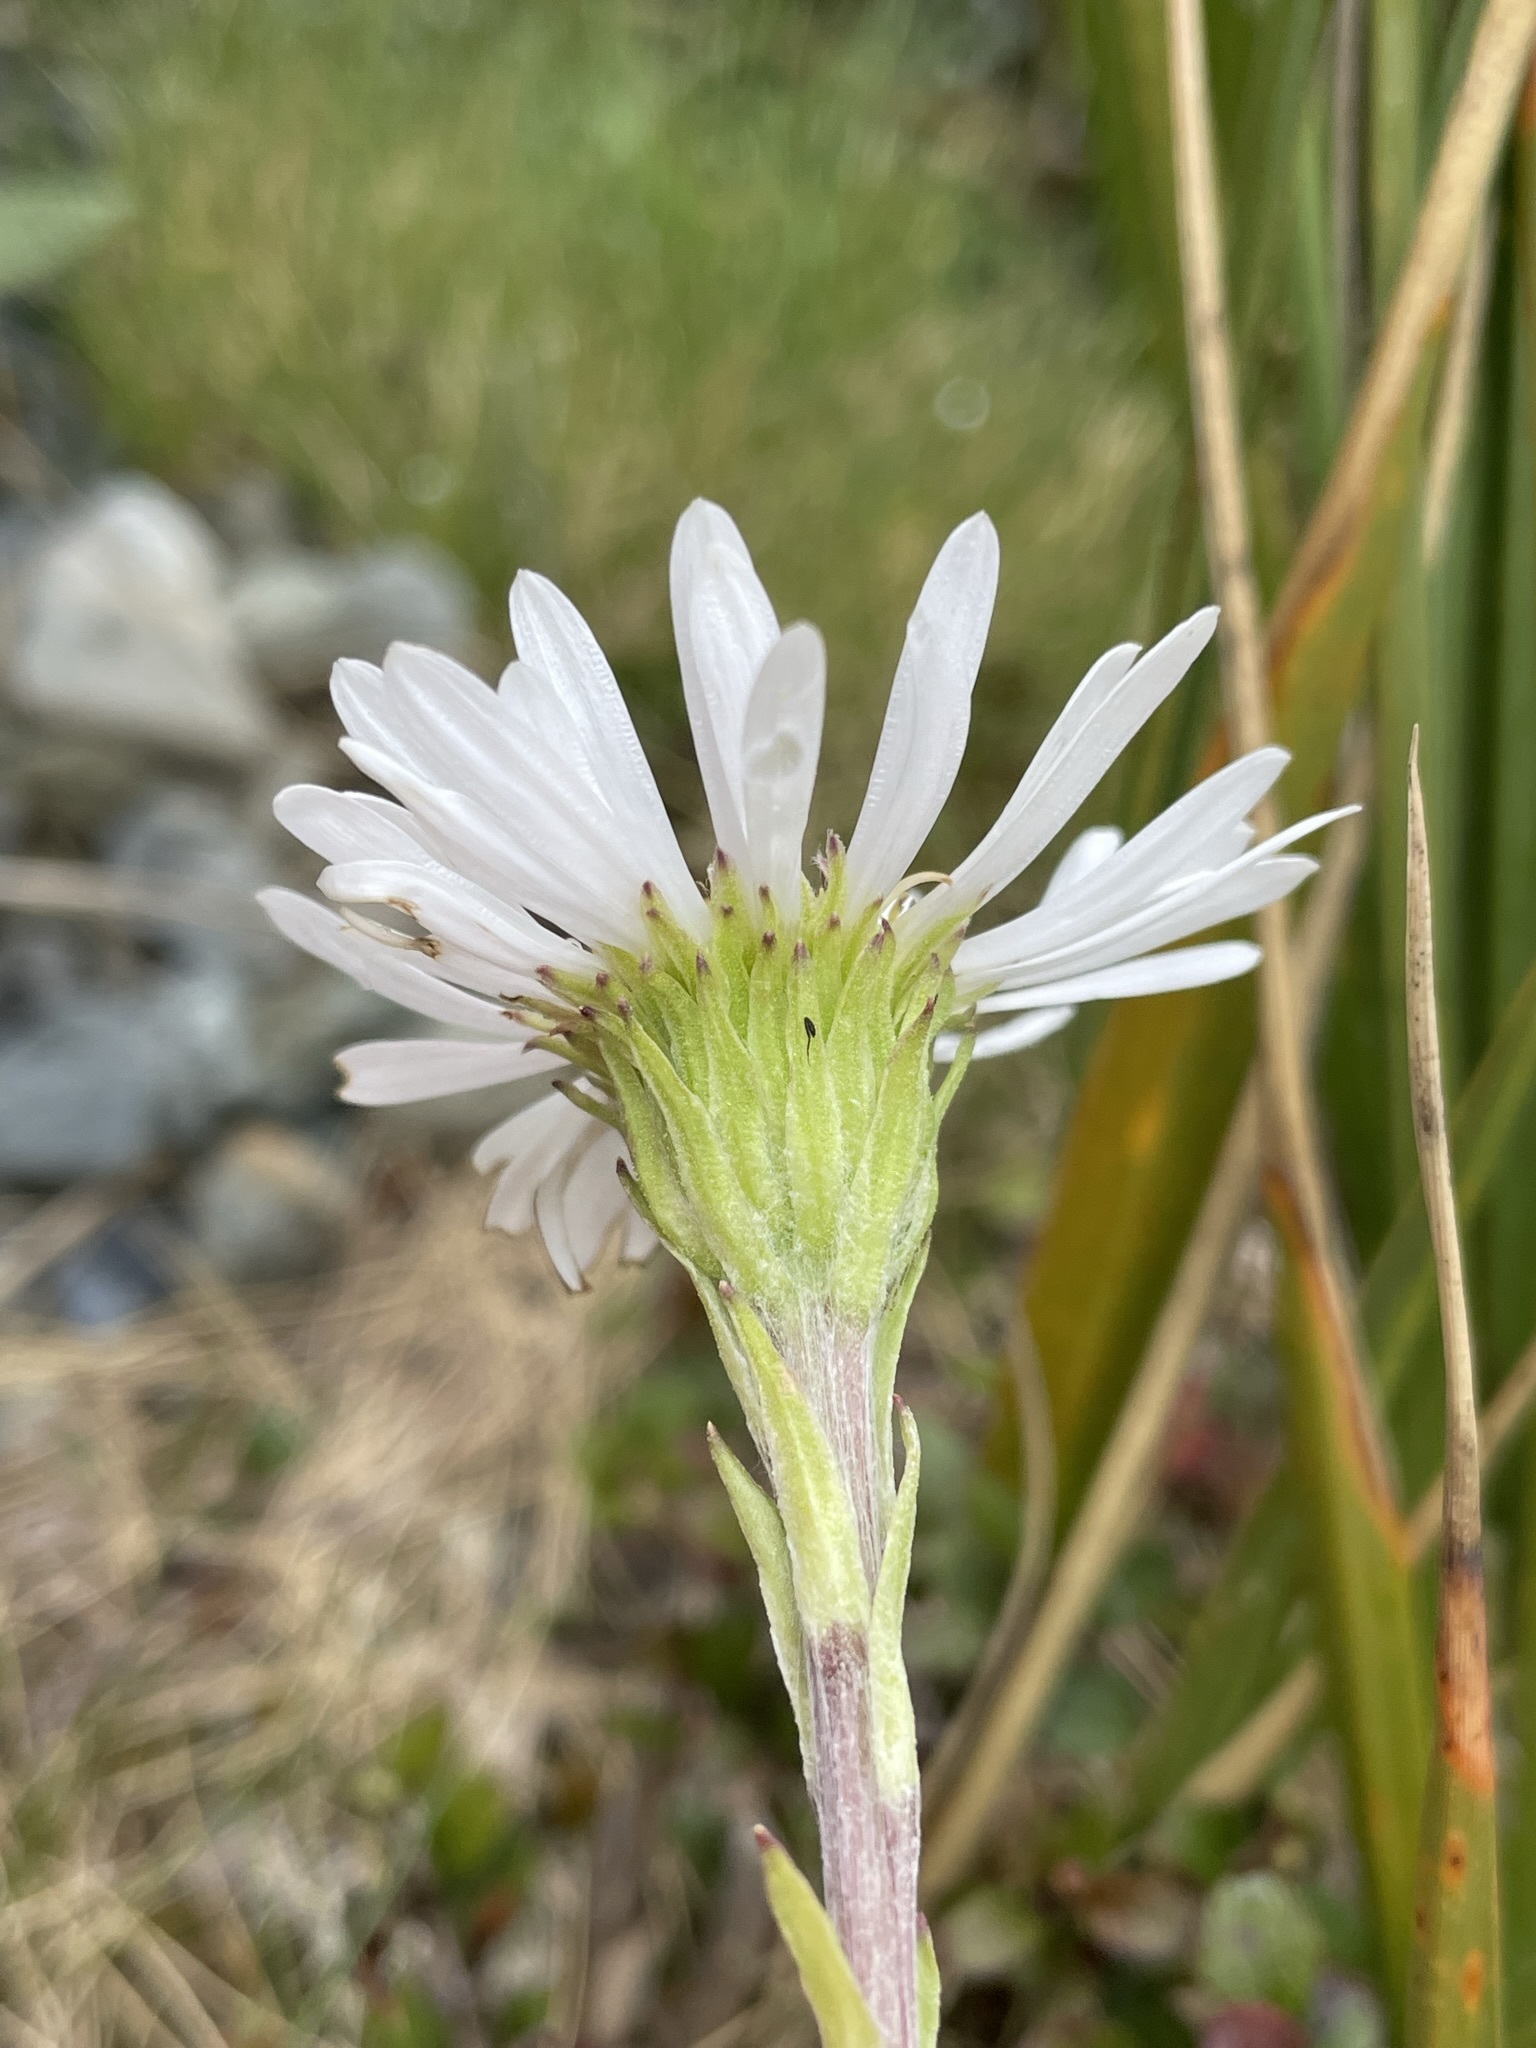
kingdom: Plantae
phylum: Tracheophyta
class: Magnoliopsida
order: Asterales
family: Asteraceae
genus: Celmisia
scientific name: Celmisia haastii
